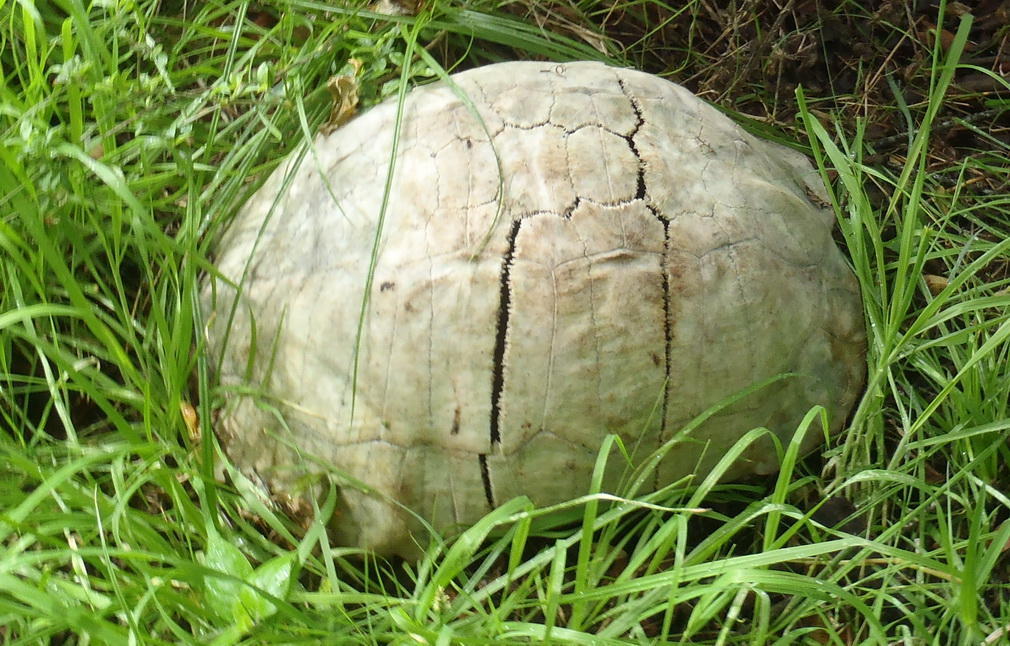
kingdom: Animalia
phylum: Chordata
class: Testudines
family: Testudinidae
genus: Stigmochelys
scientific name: Stigmochelys pardalis
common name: Leopard tortoise
